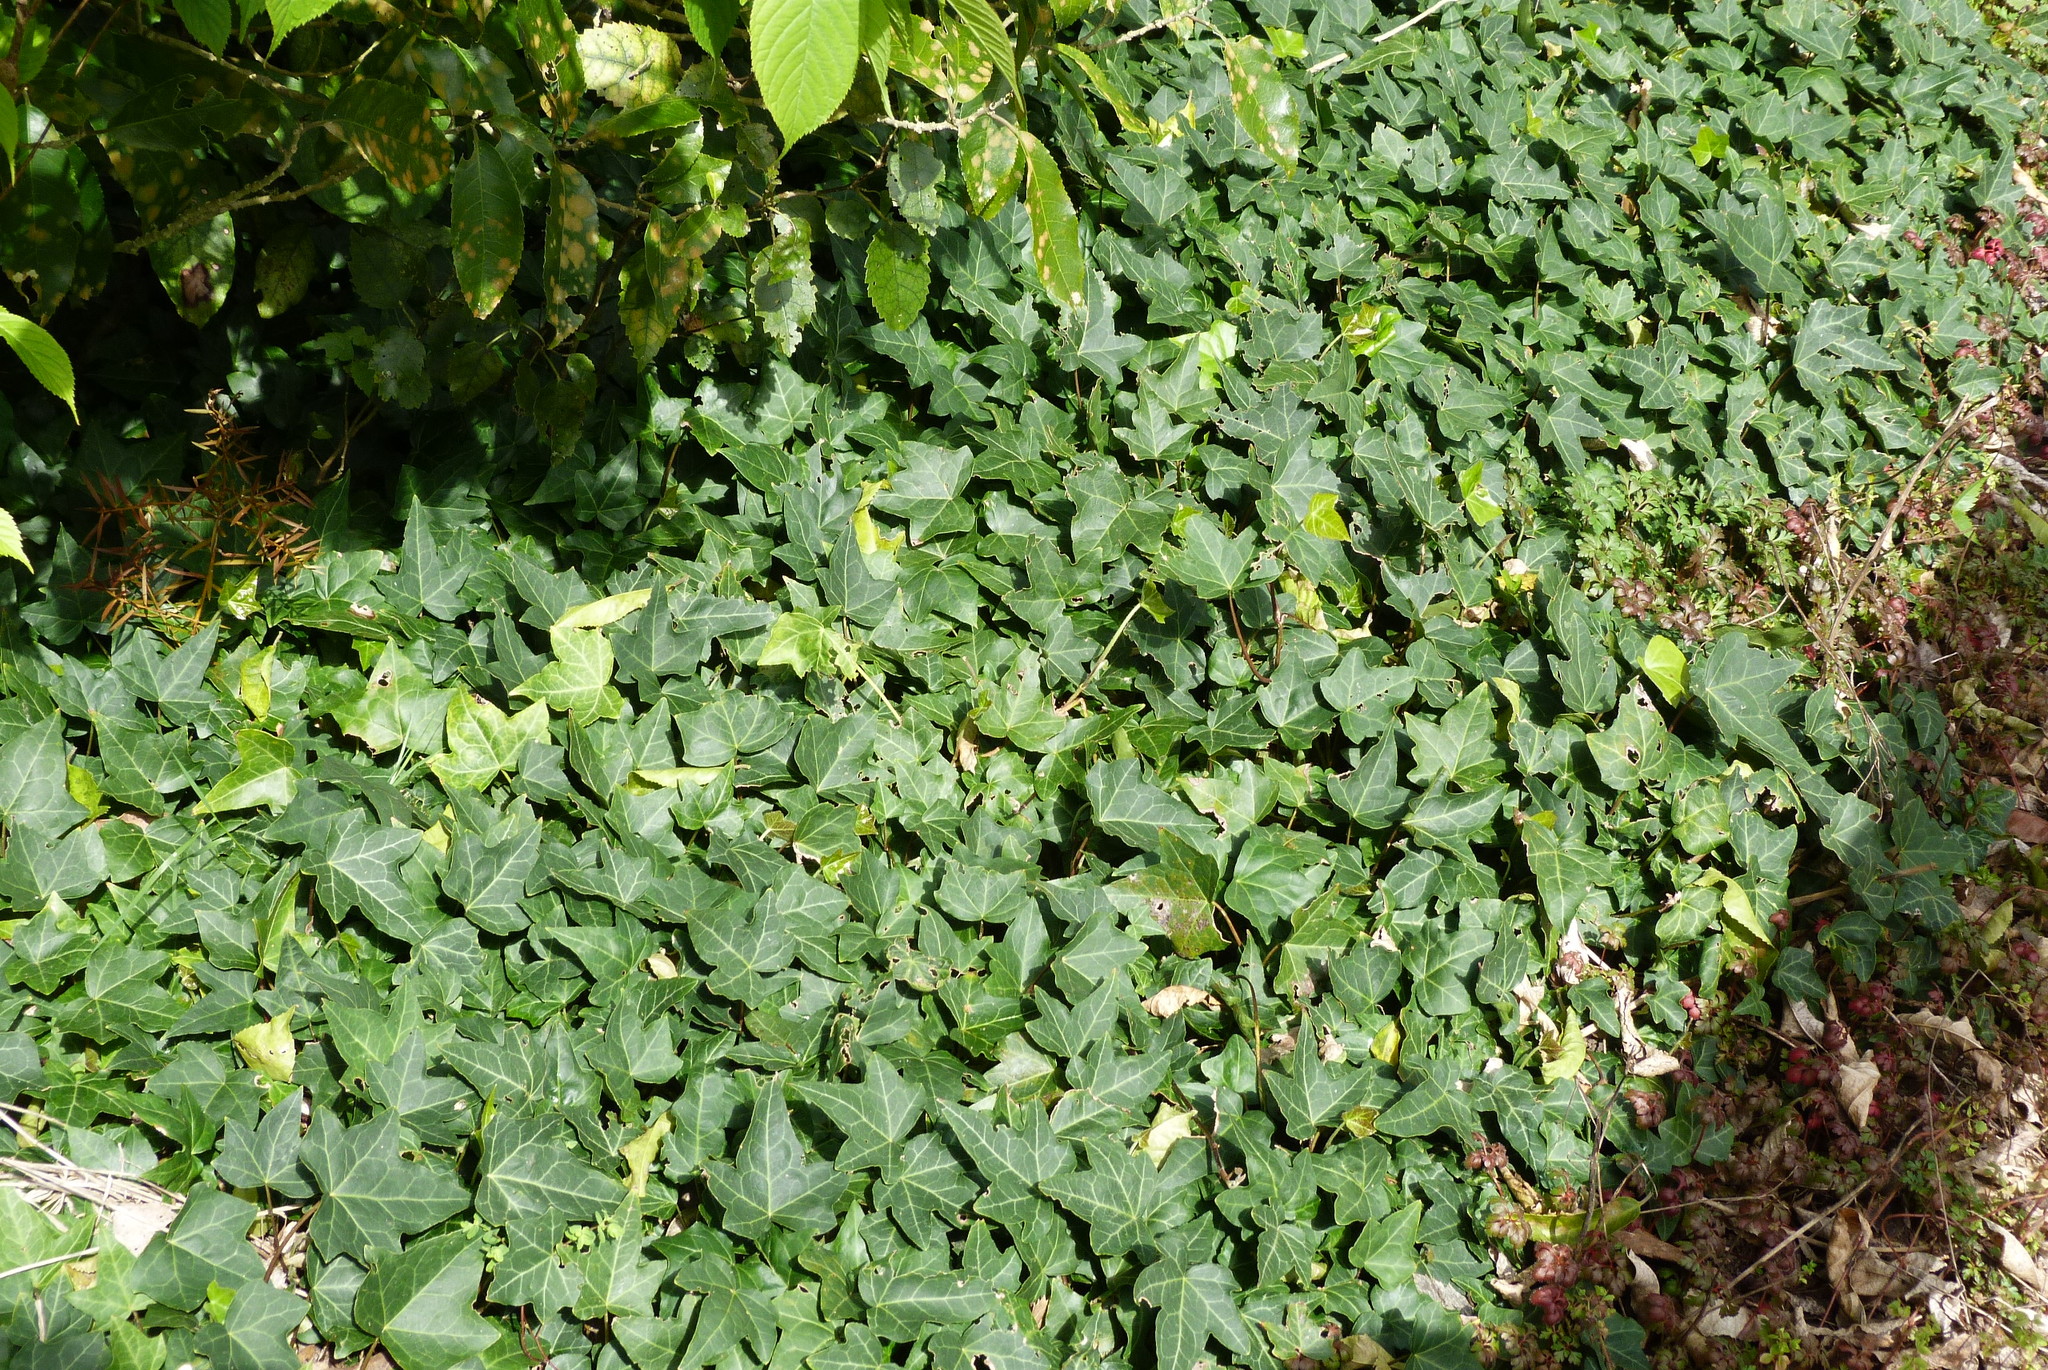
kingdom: Plantae
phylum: Tracheophyta
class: Magnoliopsida
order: Apiales
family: Araliaceae
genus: Hedera
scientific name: Hedera helix
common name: Ivy
